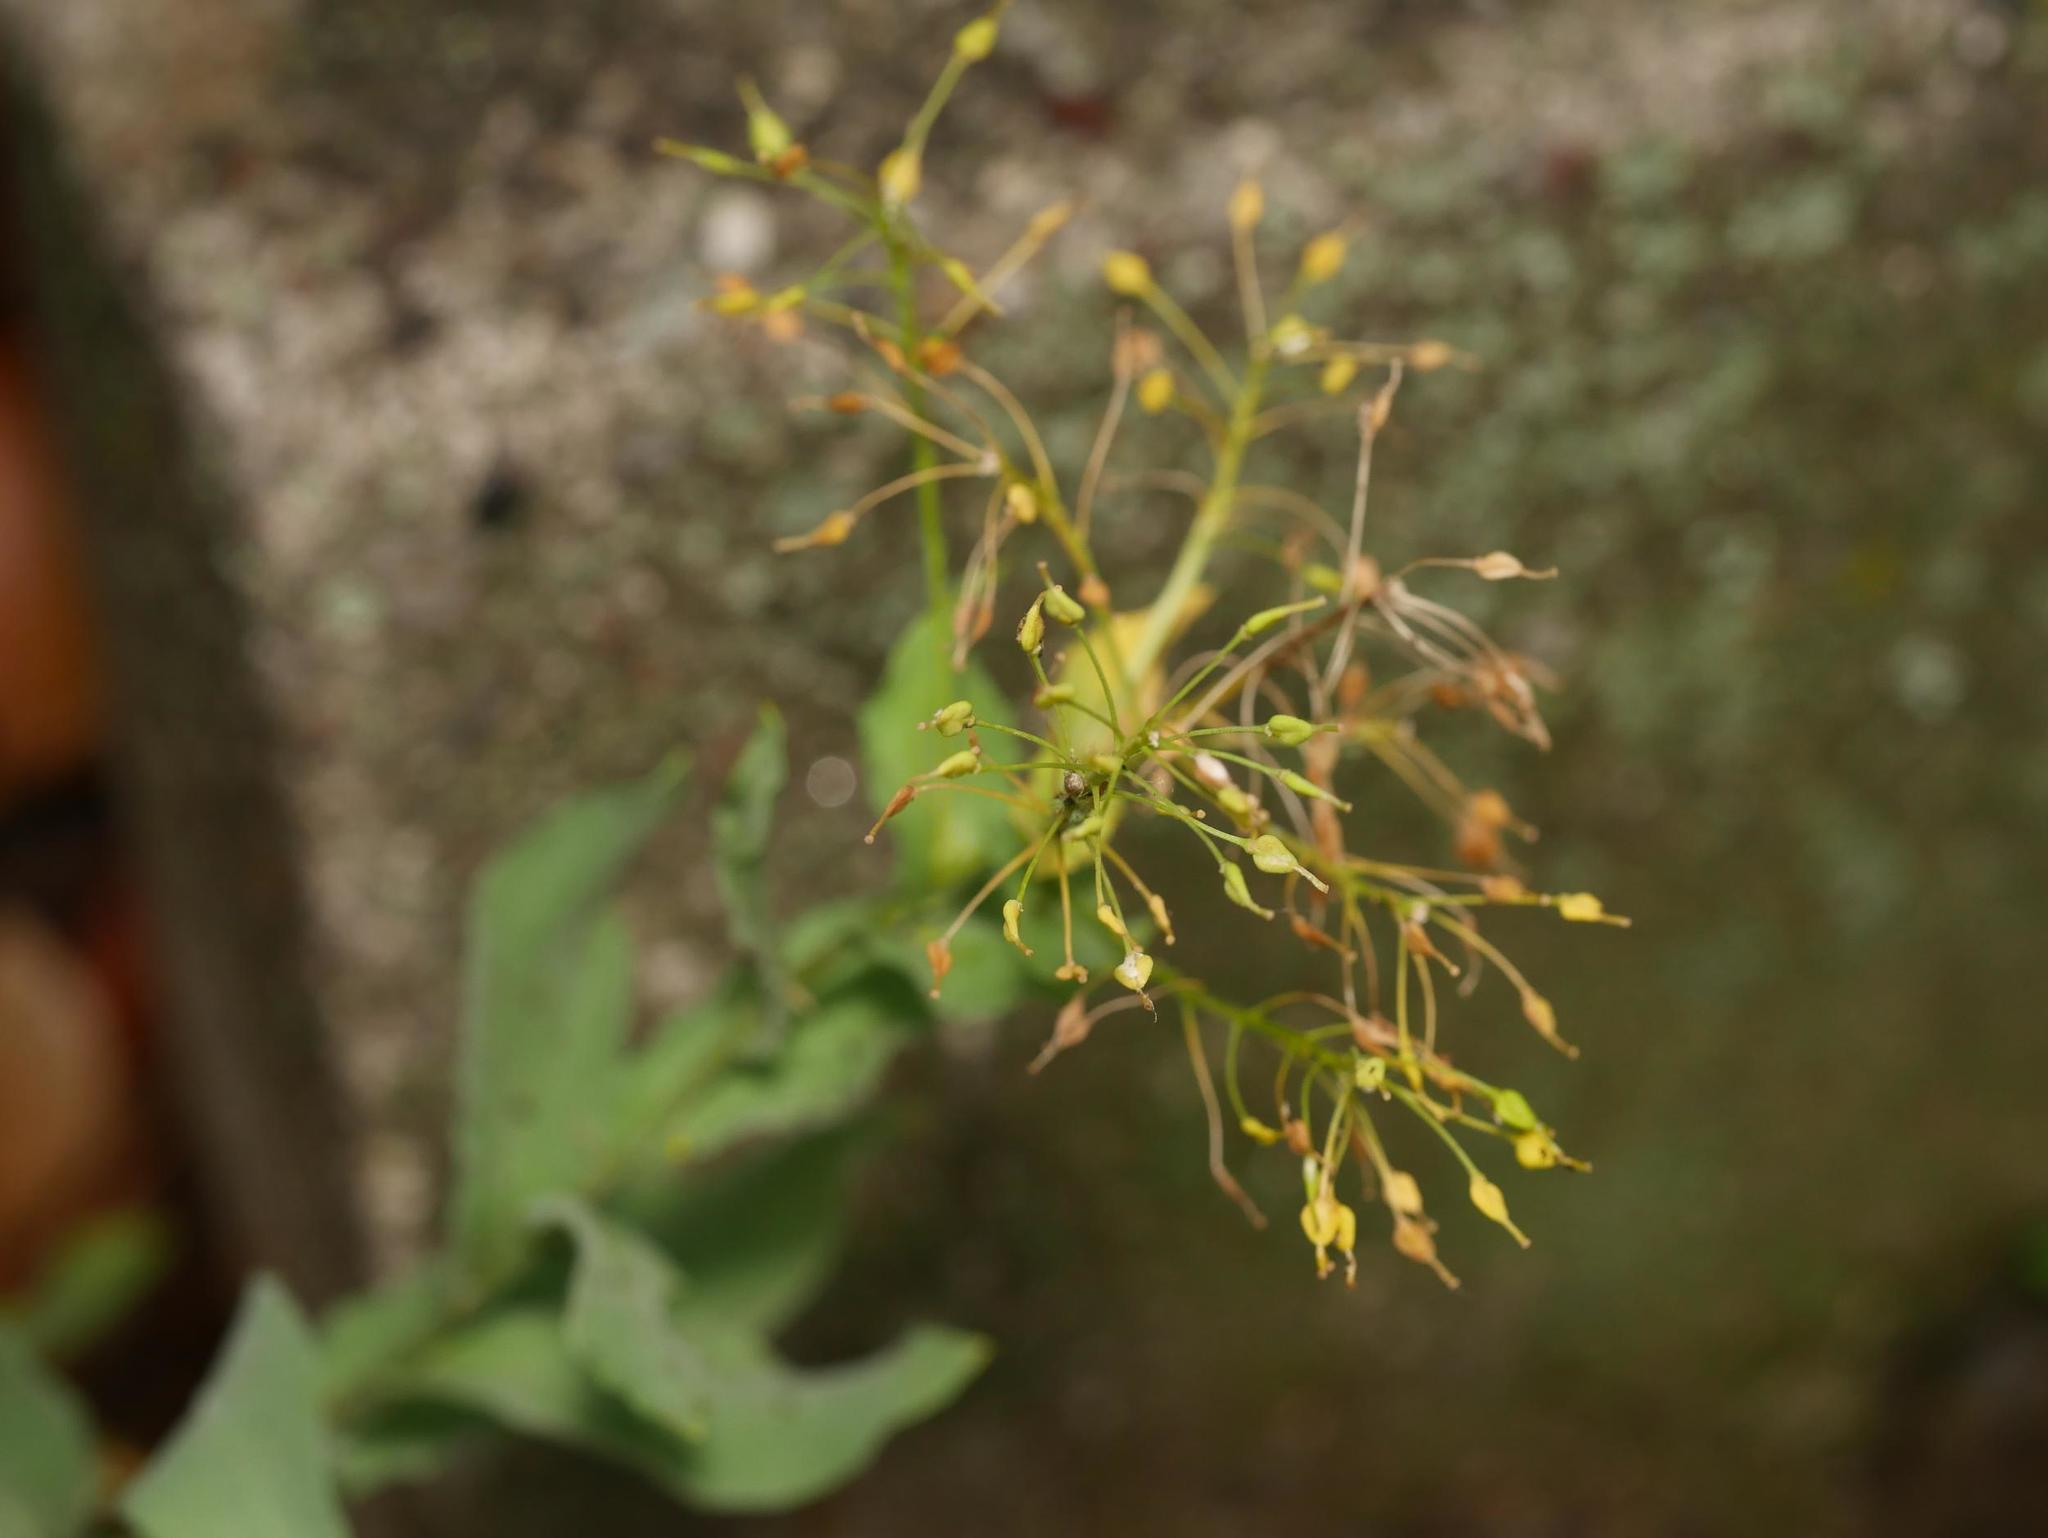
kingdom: Plantae
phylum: Tracheophyta
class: Magnoliopsida
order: Brassicales
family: Brassicaceae
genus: Lepidium
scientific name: Lepidium draba
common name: Hoary cress
